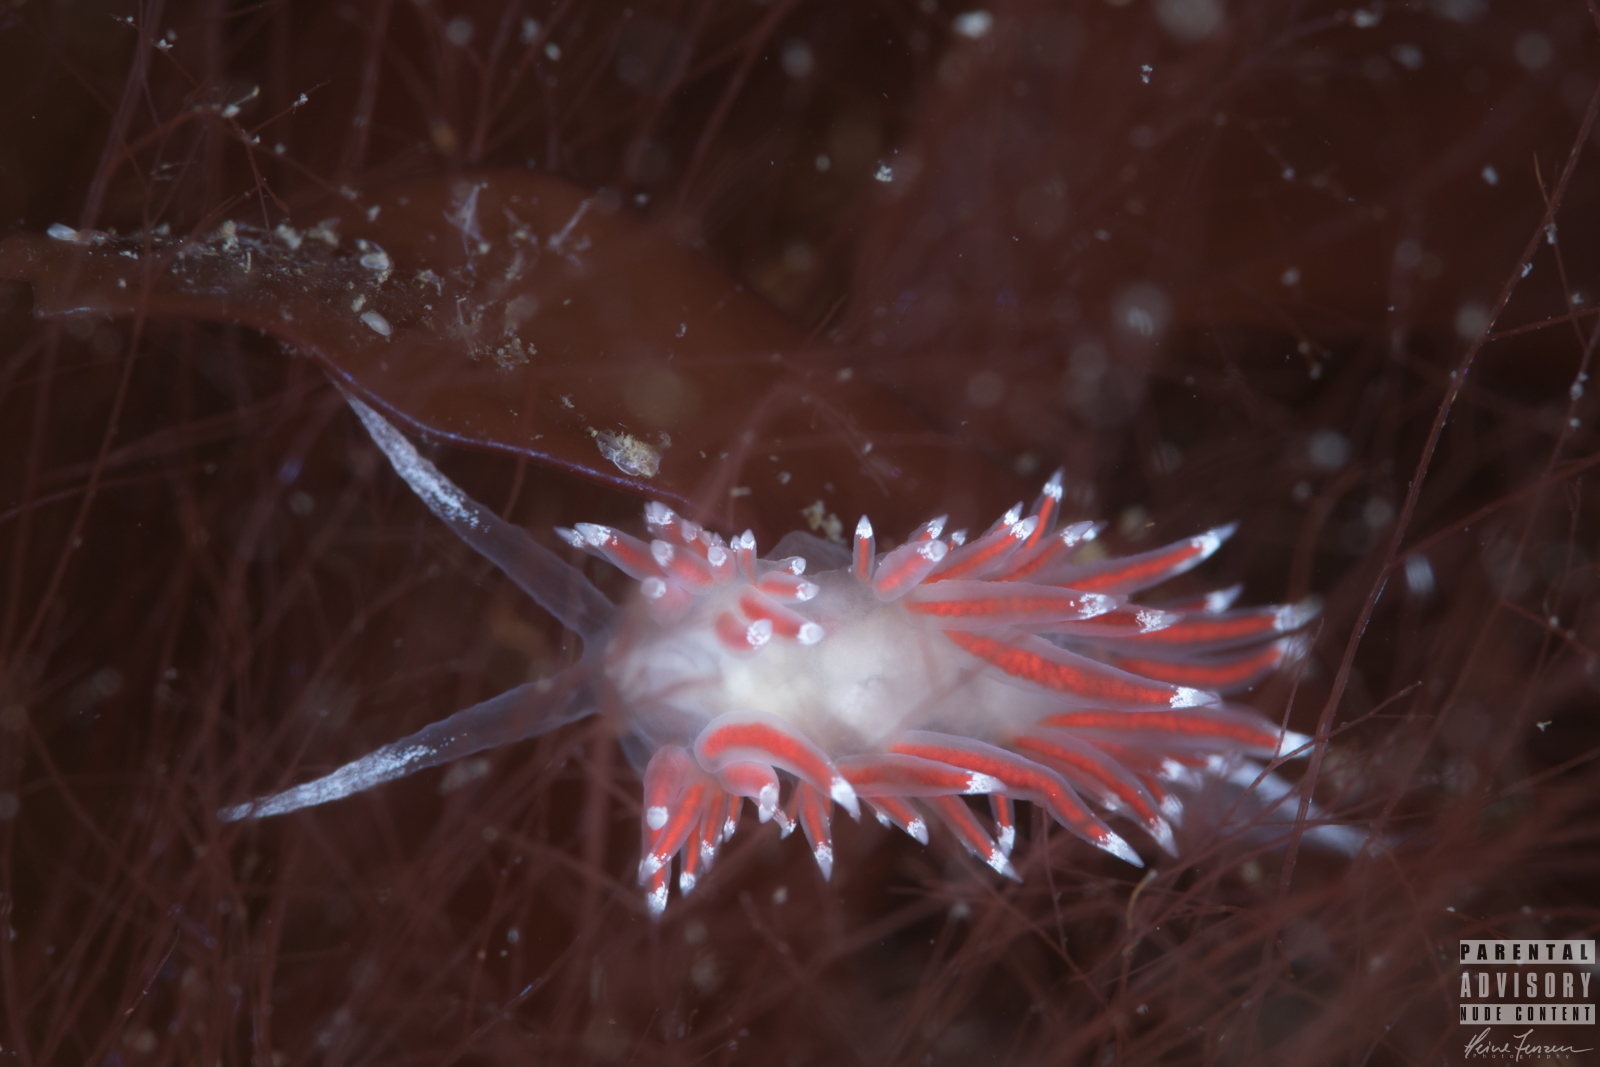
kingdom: Animalia
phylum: Mollusca
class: Gastropoda
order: Nudibranchia
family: Coryphellidae
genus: Coryphella
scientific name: Coryphella gracilis
